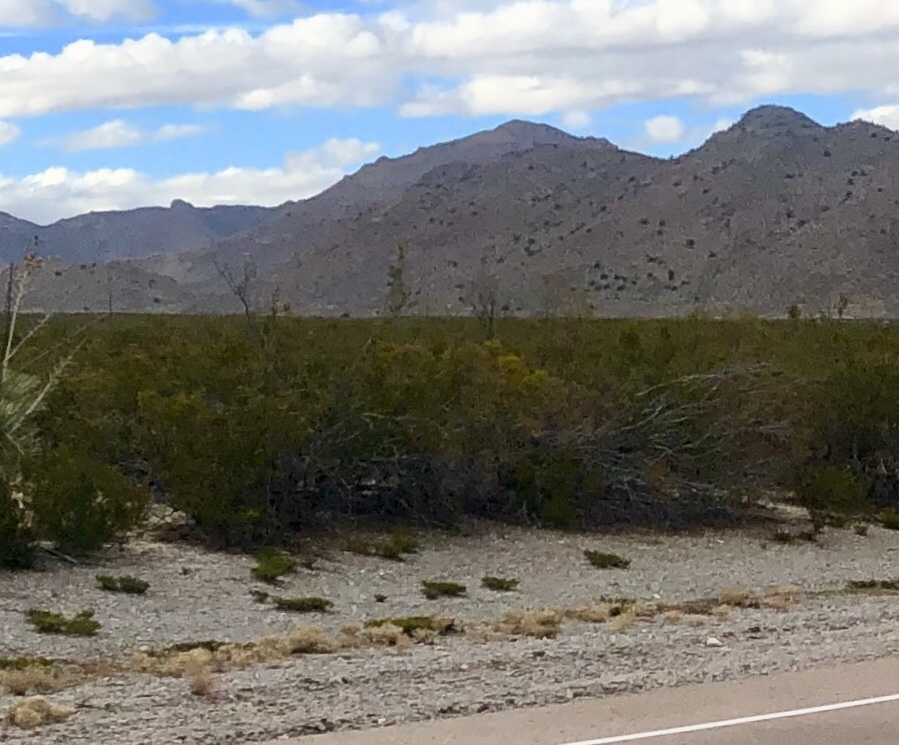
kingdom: Plantae
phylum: Tracheophyta
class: Magnoliopsida
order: Zygophyllales
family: Zygophyllaceae
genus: Larrea
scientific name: Larrea tridentata
